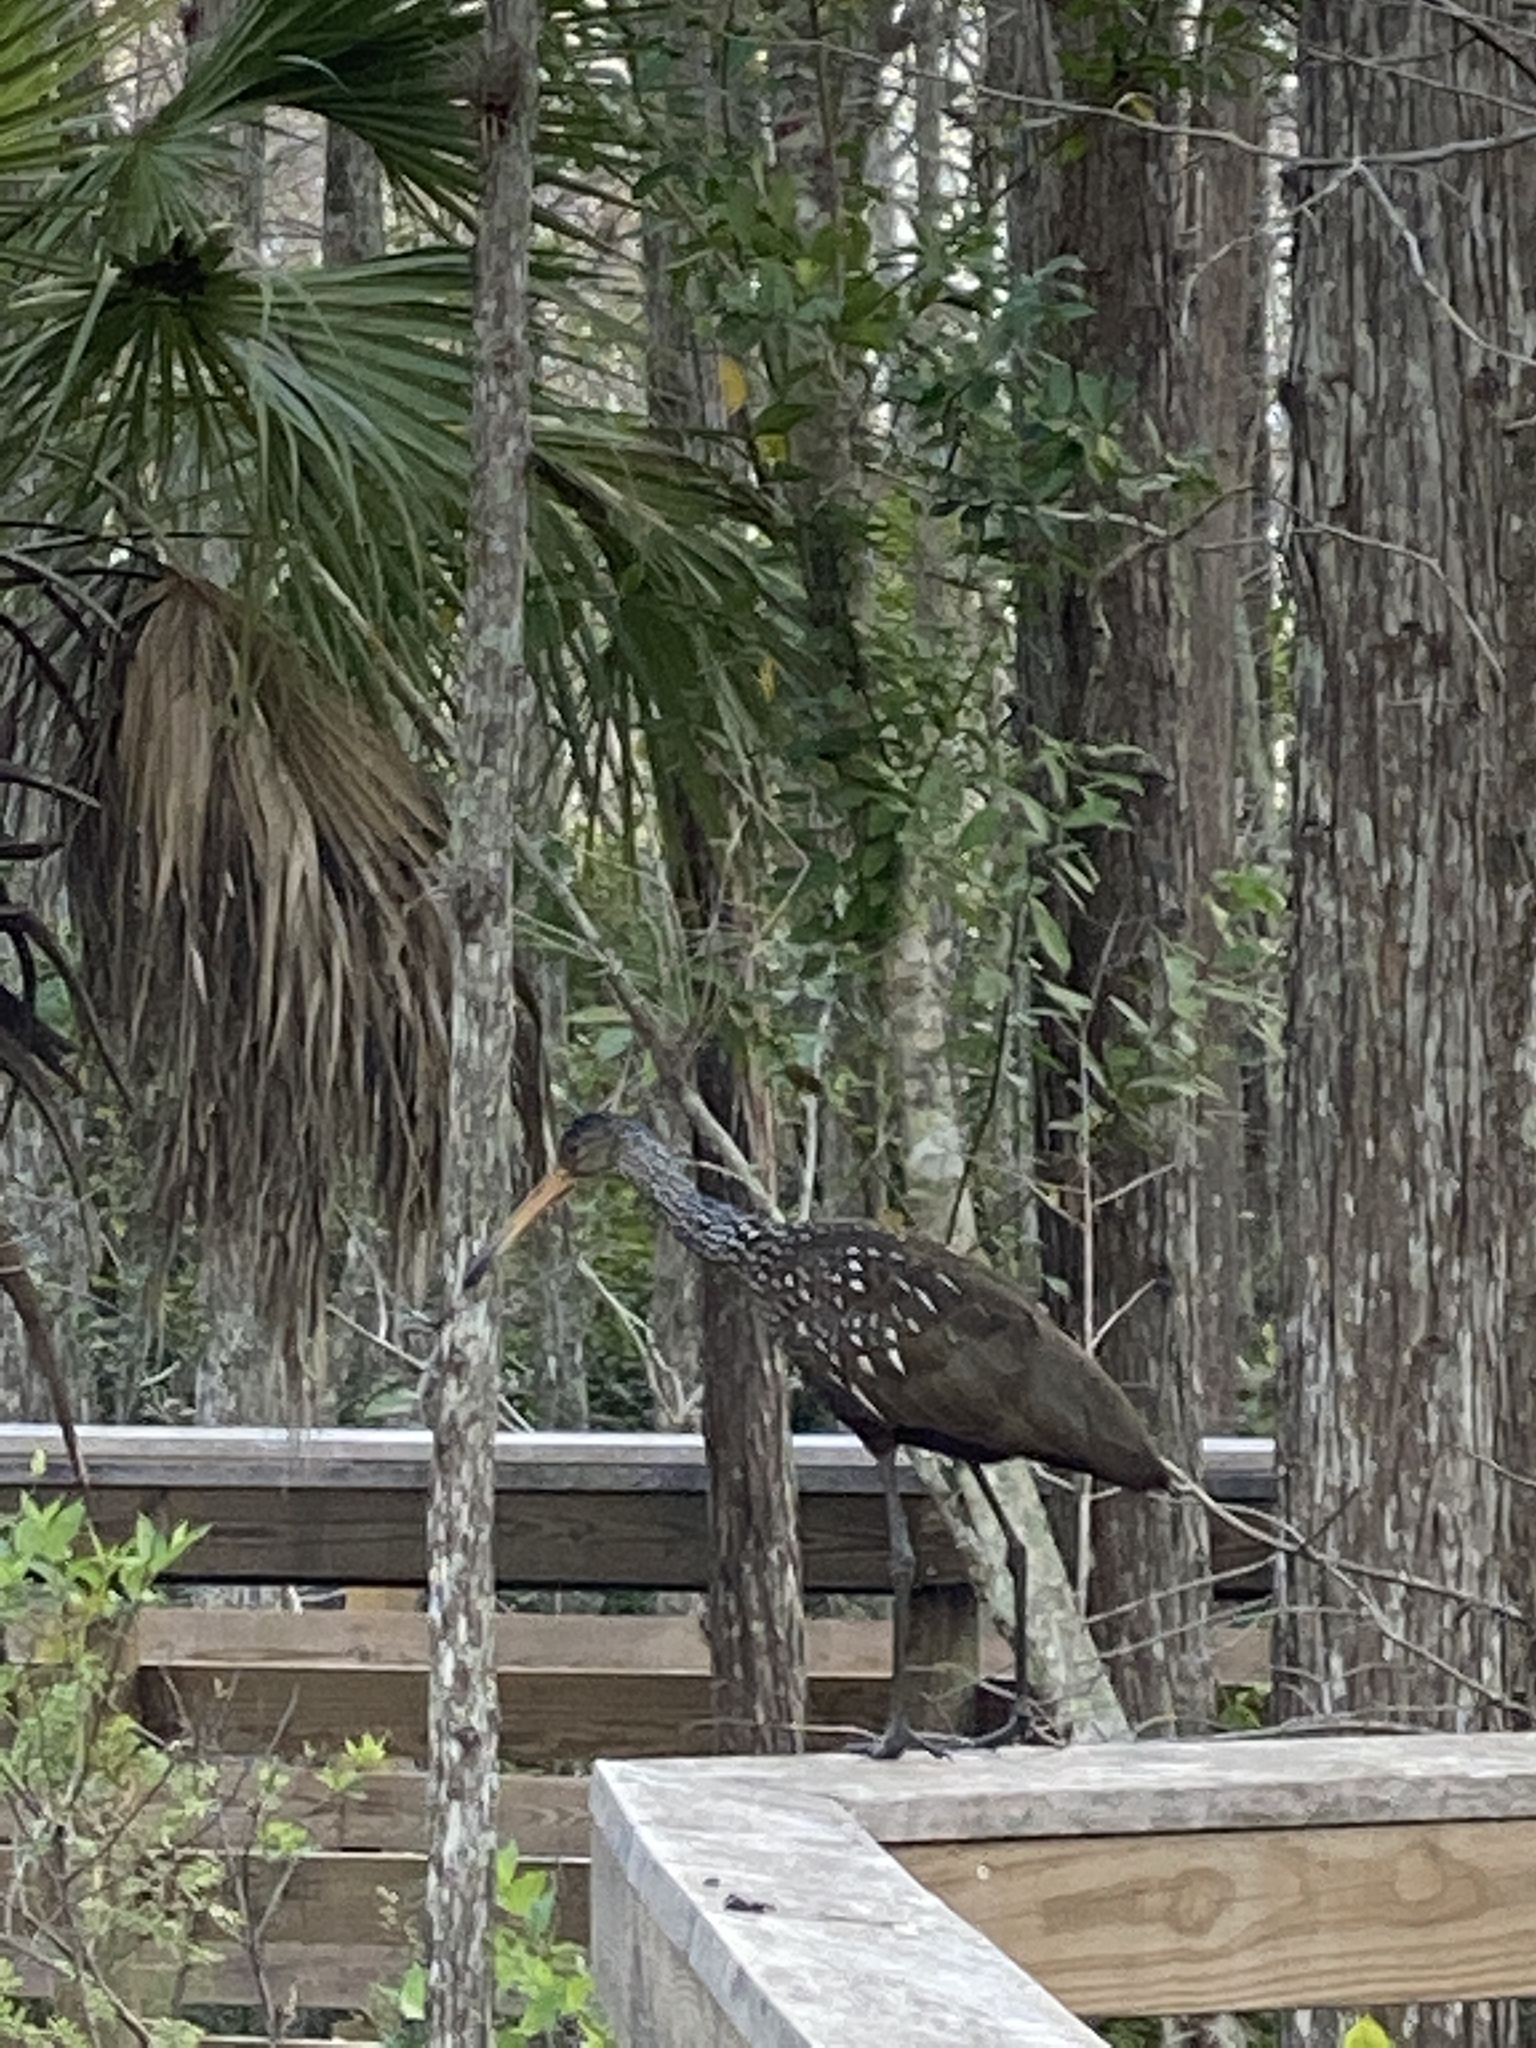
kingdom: Animalia
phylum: Chordata
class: Aves
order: Gruiformes
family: Aramidae
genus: Aramus
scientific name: Aramus guarauna
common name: Limpkin
